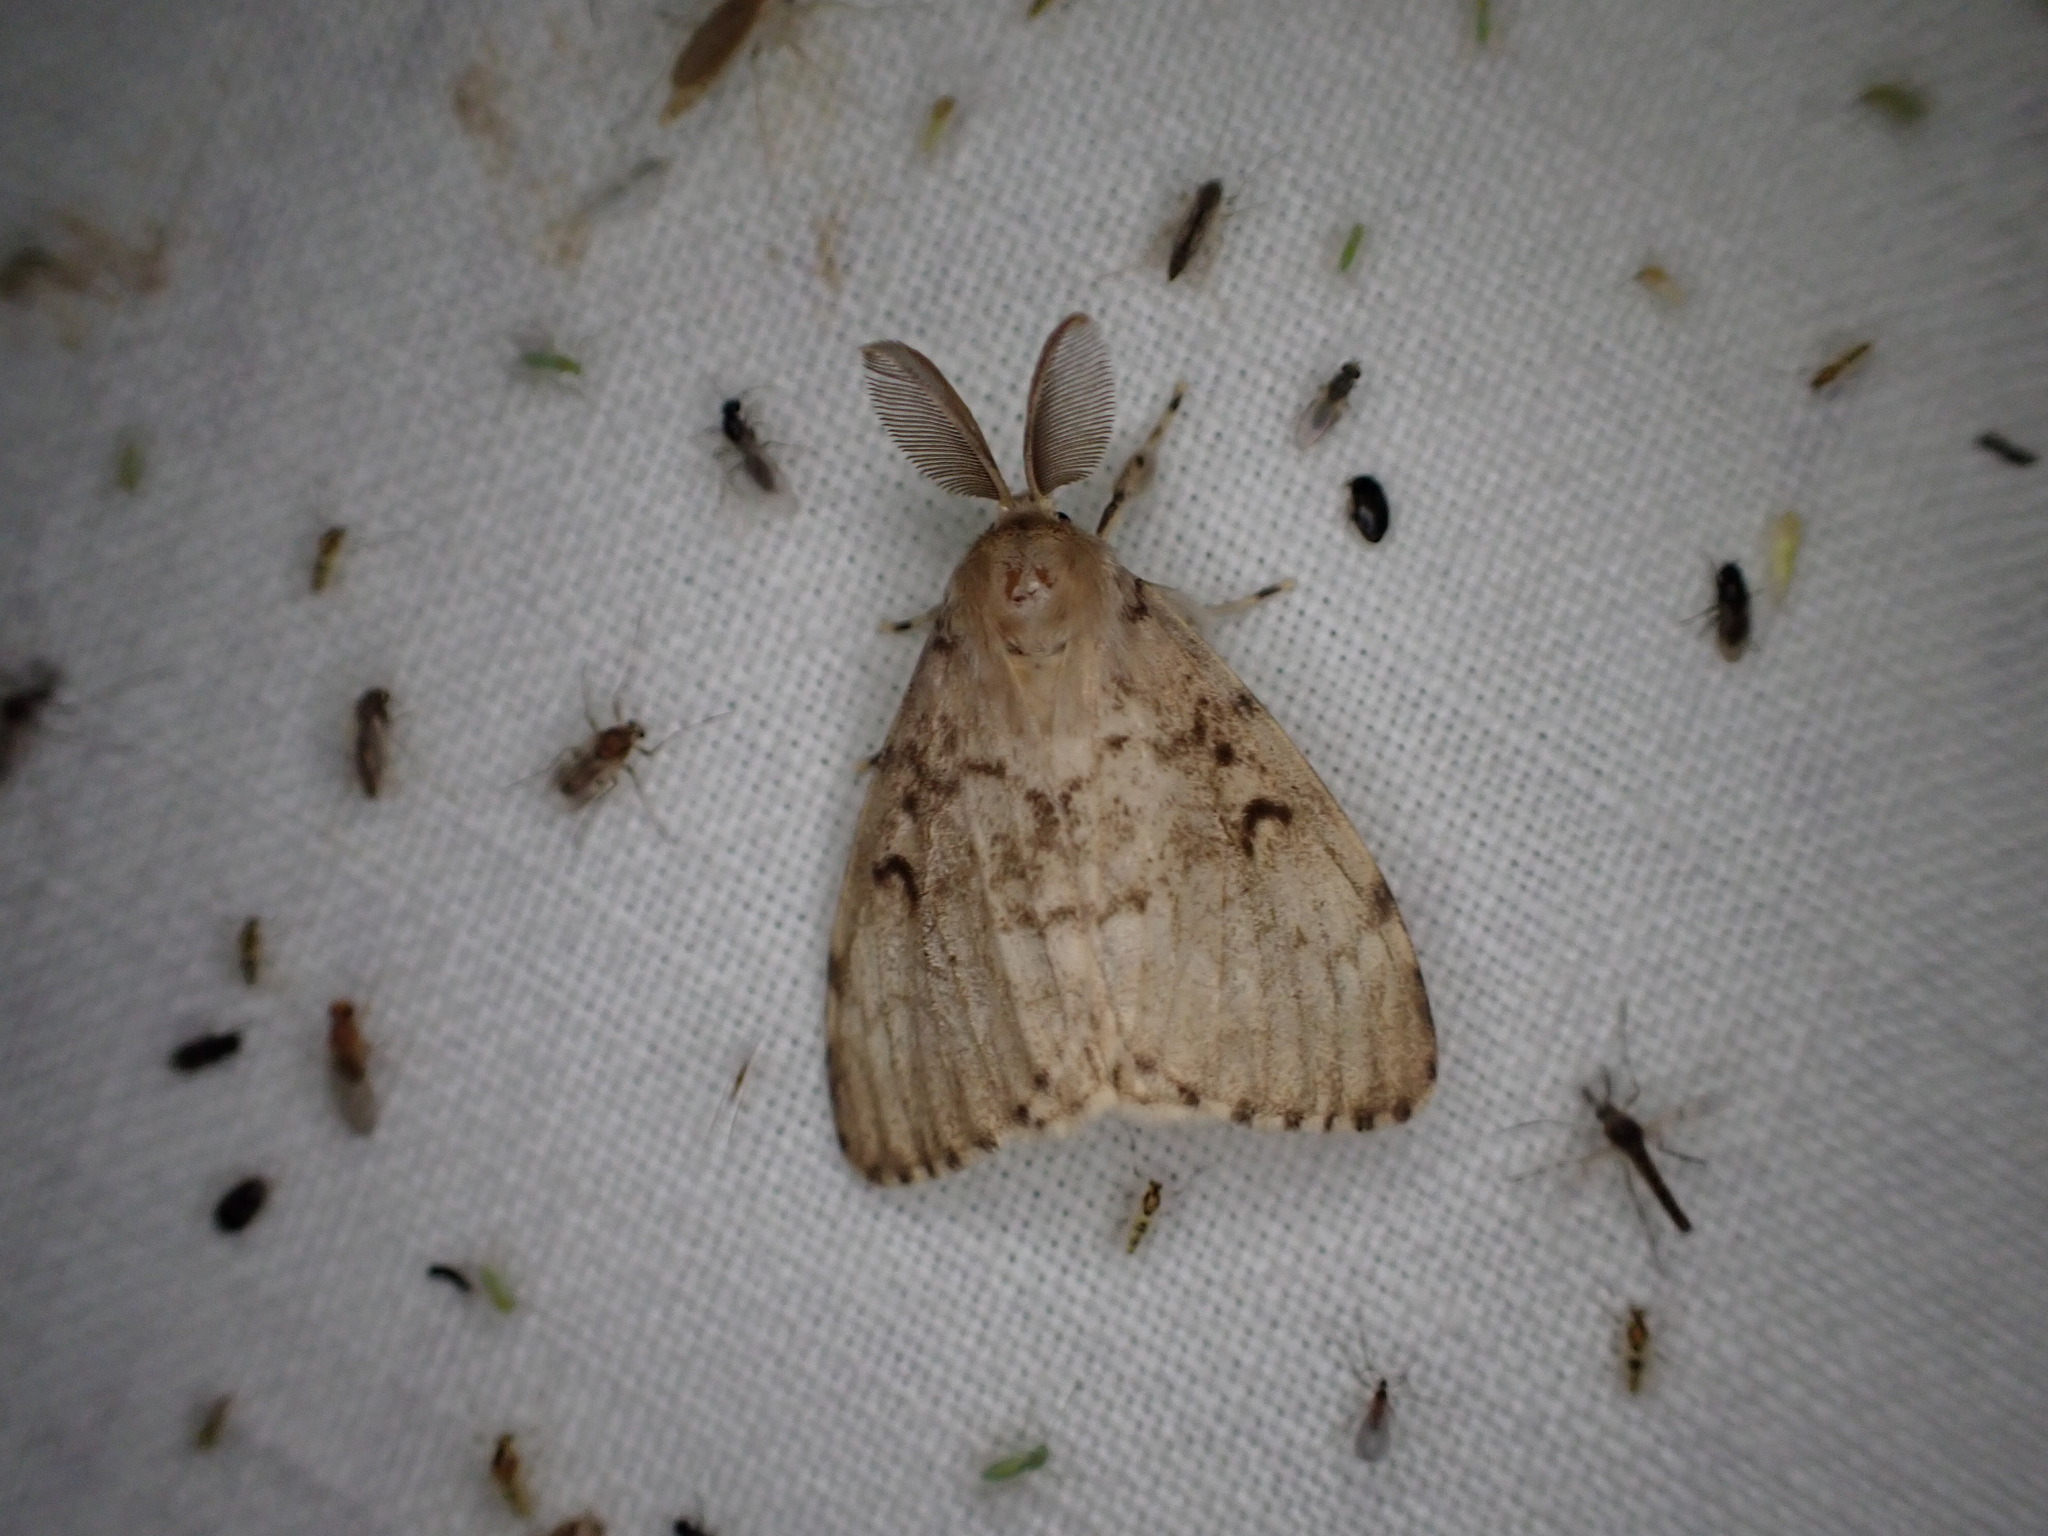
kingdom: Animalia
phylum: Arthropoda
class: Insecta
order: Lepidoptera
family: Erebidae
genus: Lymantria
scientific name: Lymantria dispar
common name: Gypsy moth
